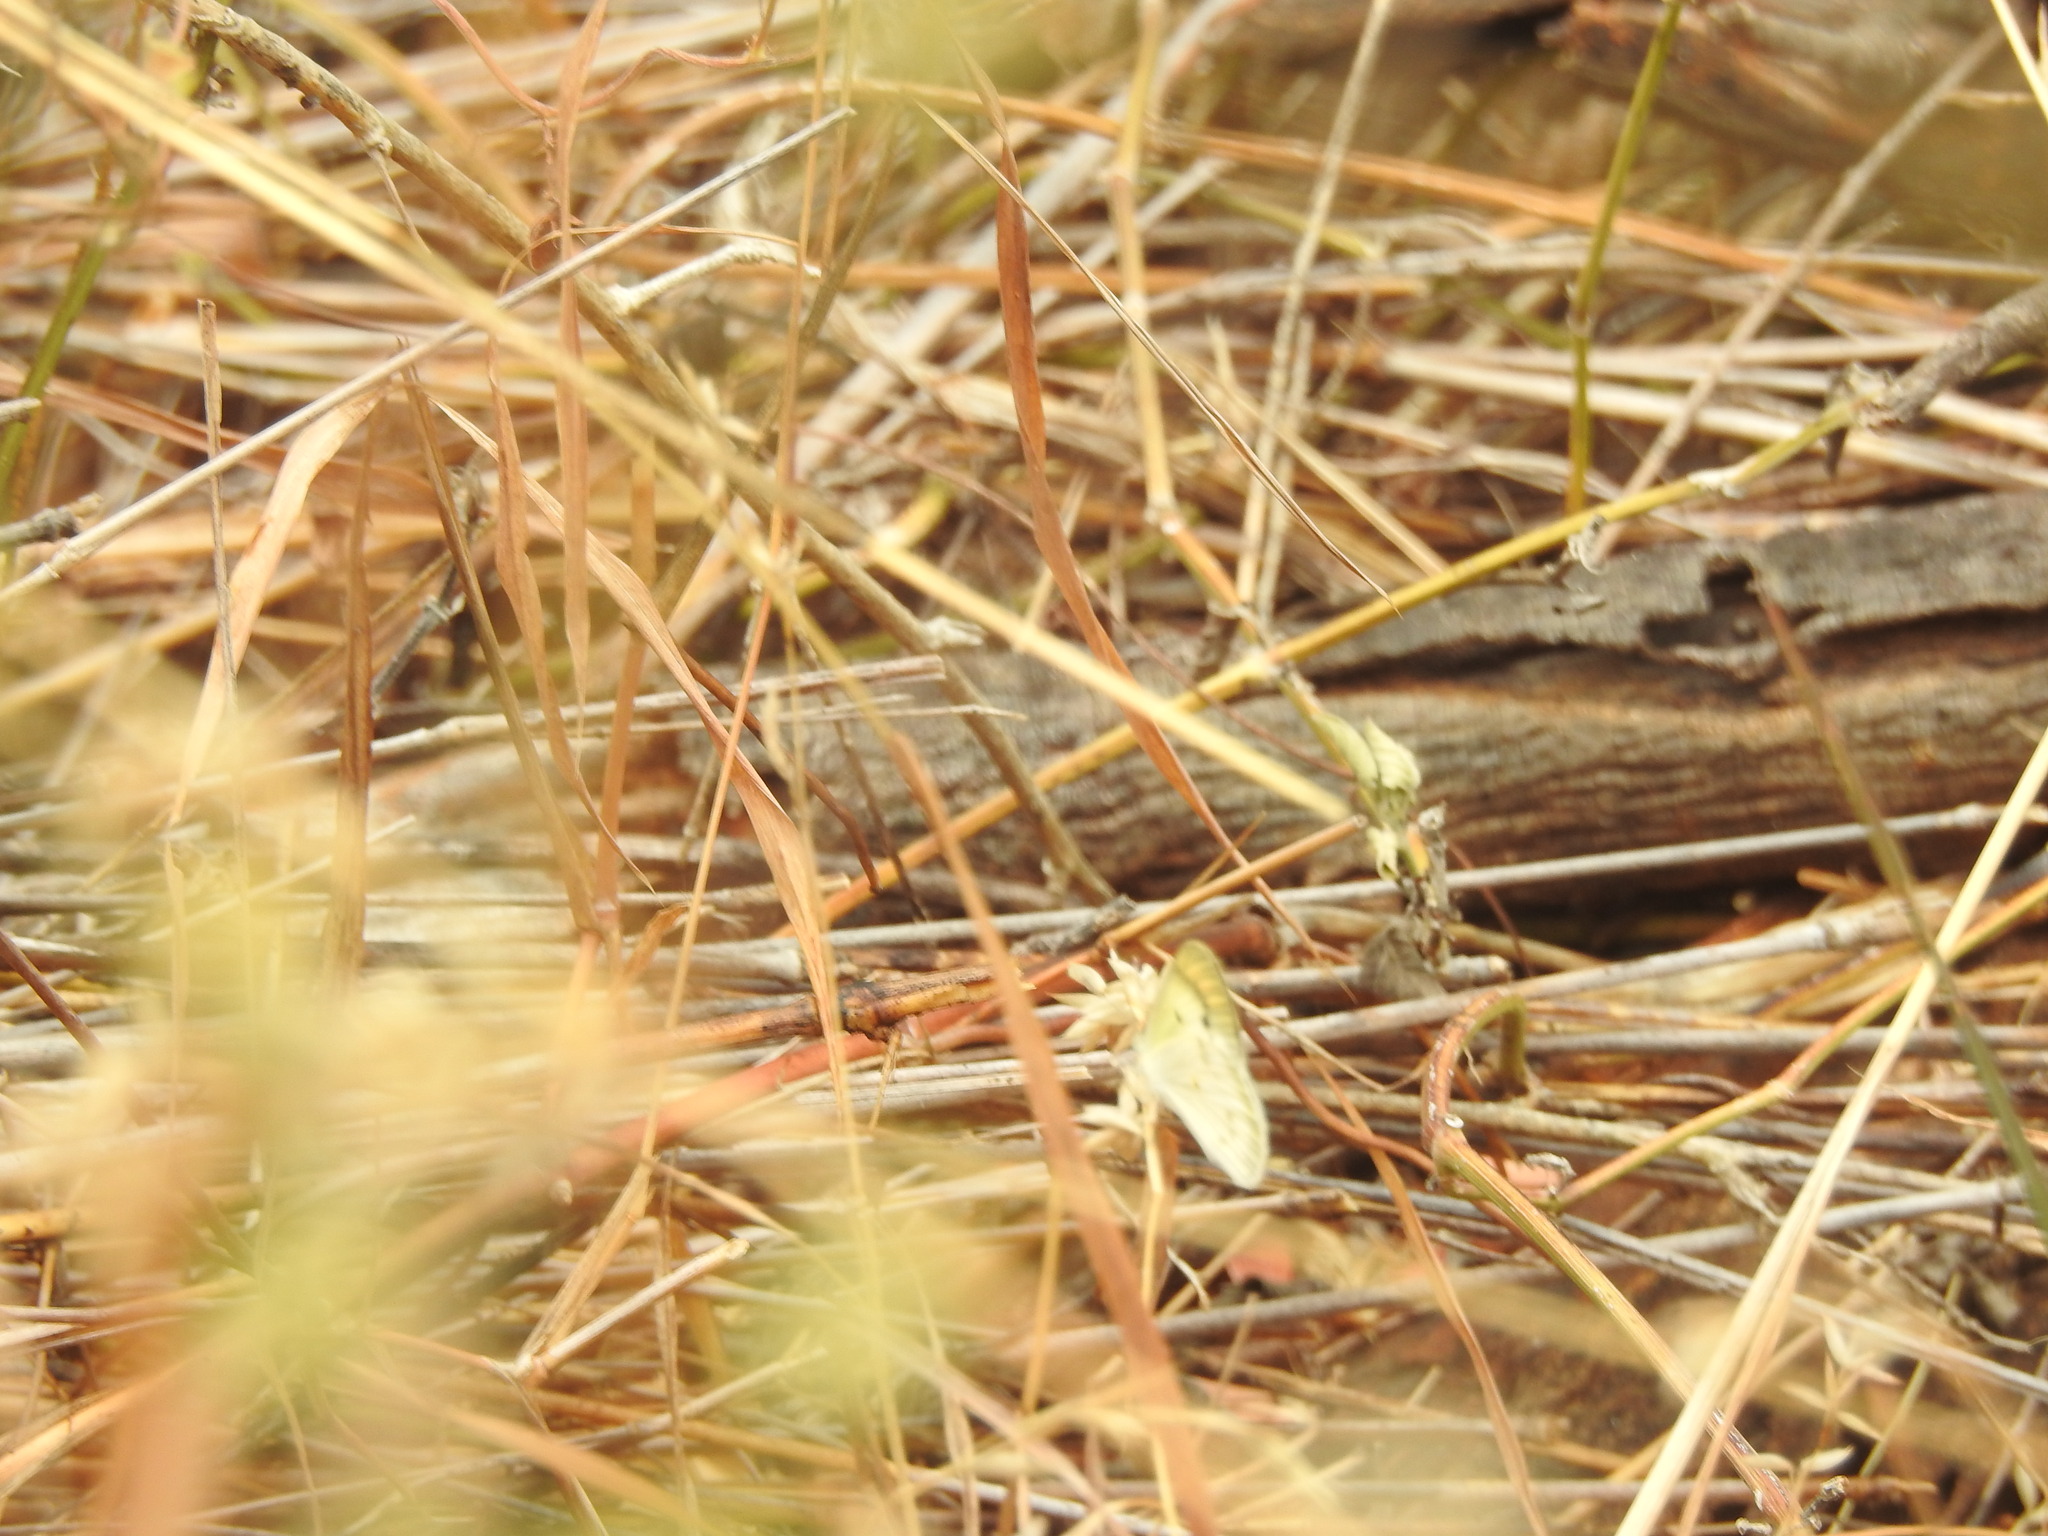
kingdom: Animalia
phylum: Arthropoda
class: Insecta
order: Lepidoptera
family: Pieridae
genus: Colotis
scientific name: Colotis etrida
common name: Little orange tip
